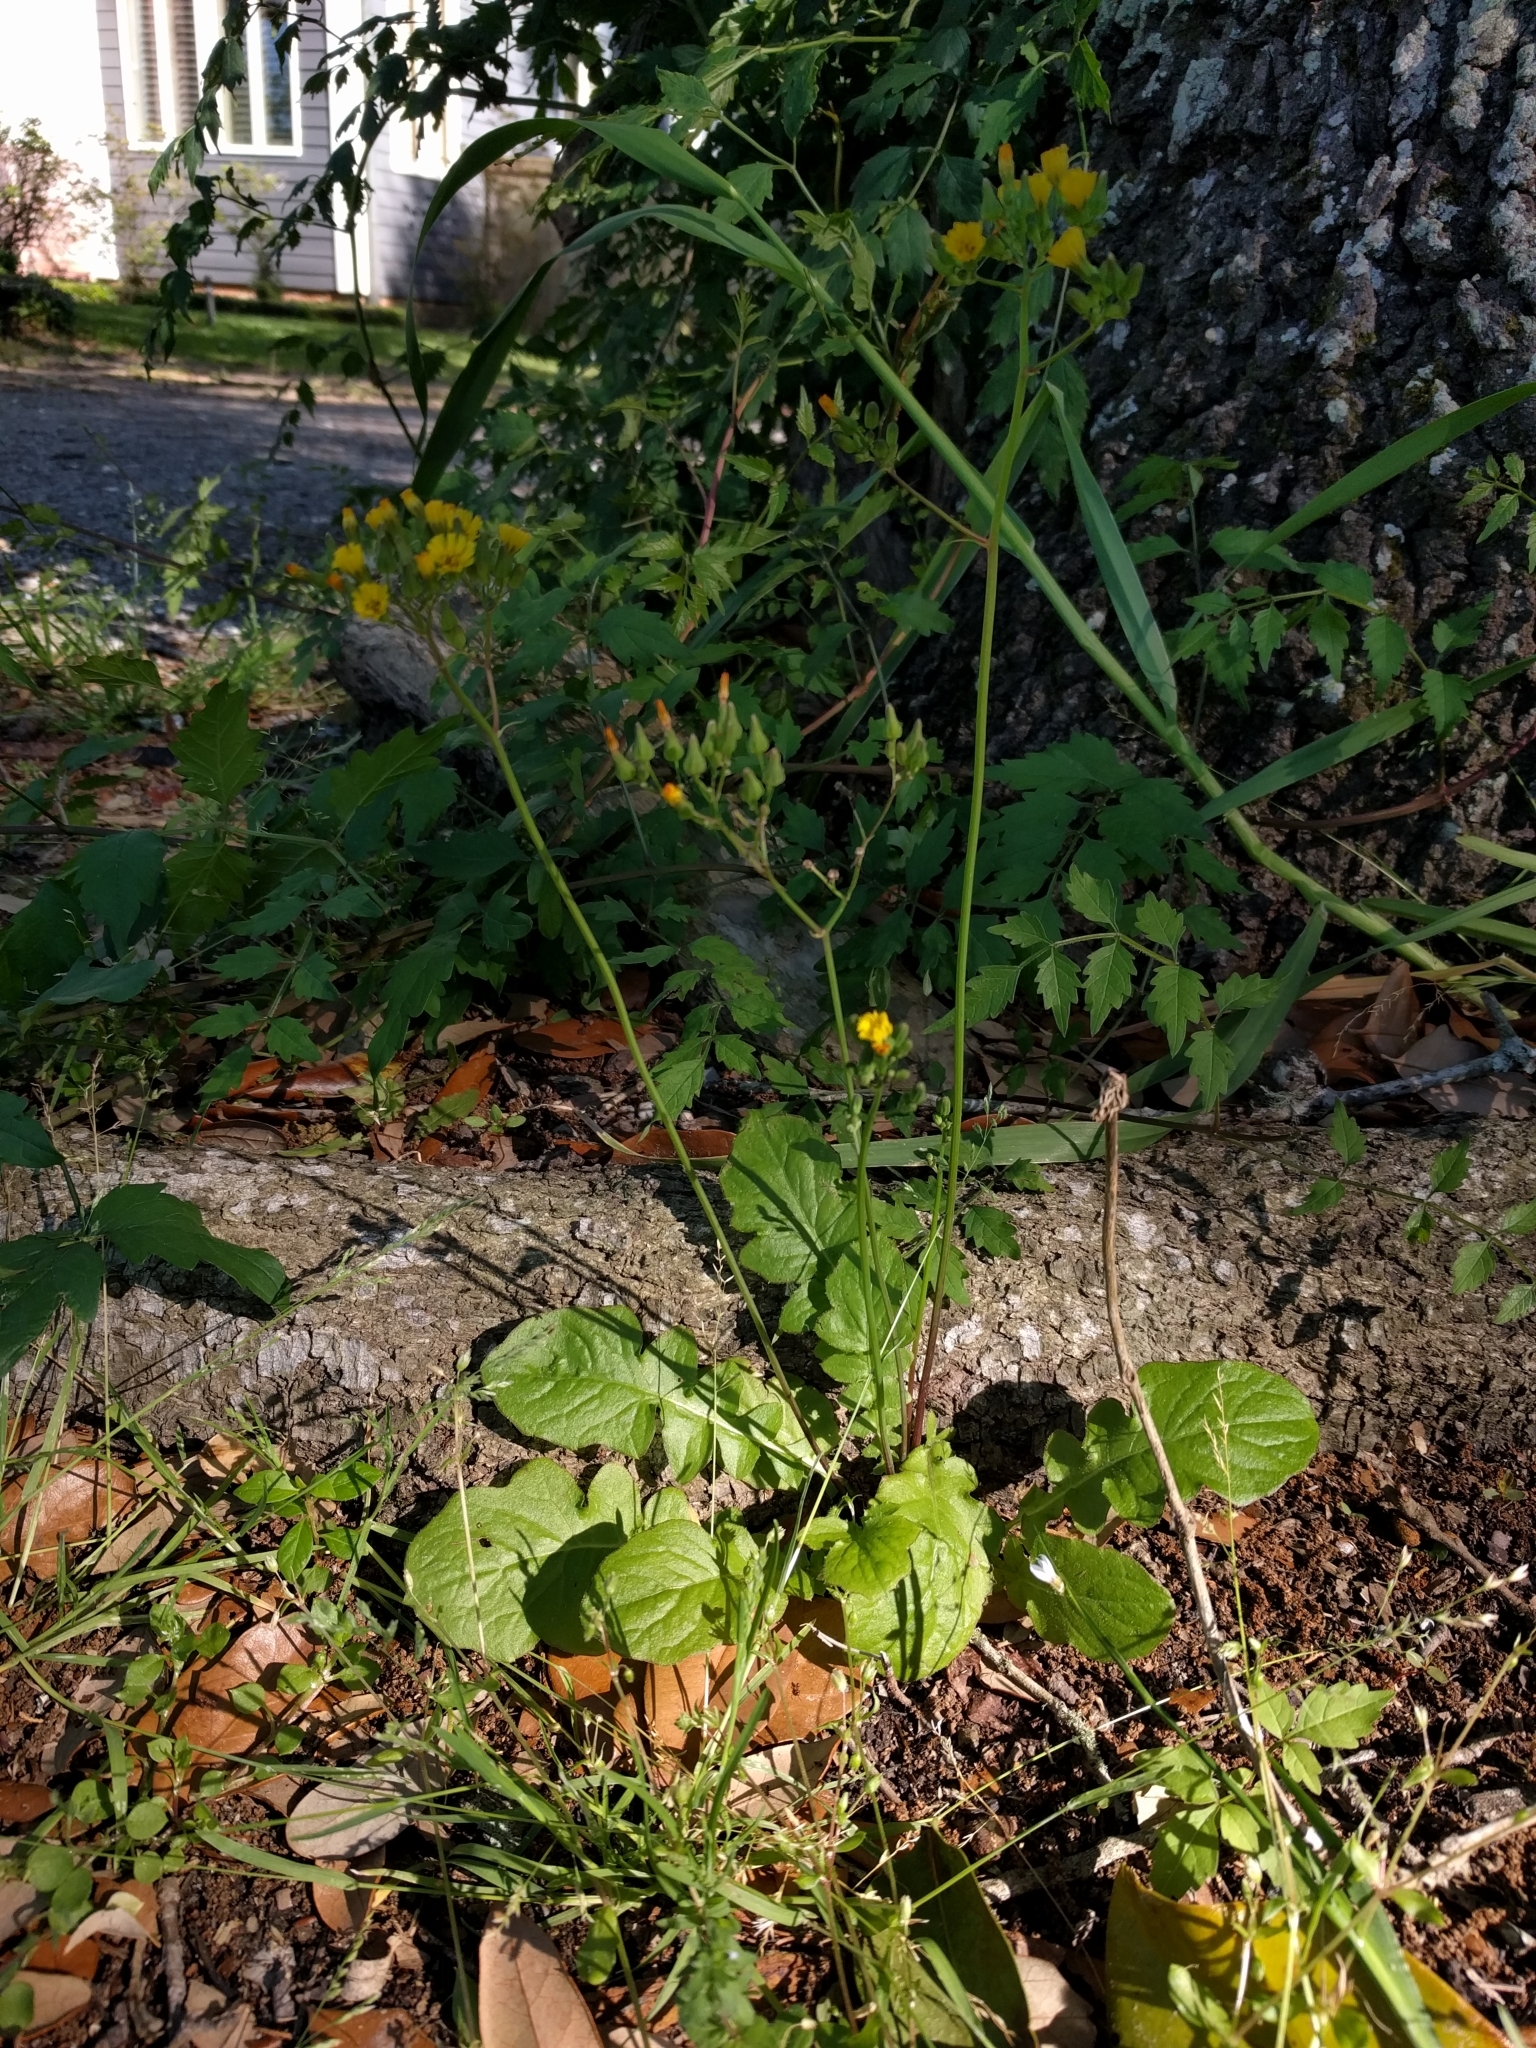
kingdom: Plantae
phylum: Tracheophyta
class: Magnoliopsida
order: Asterales
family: Asteraceae
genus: Youngia
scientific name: Youngia japonica
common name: Oriental false hawksbeard
